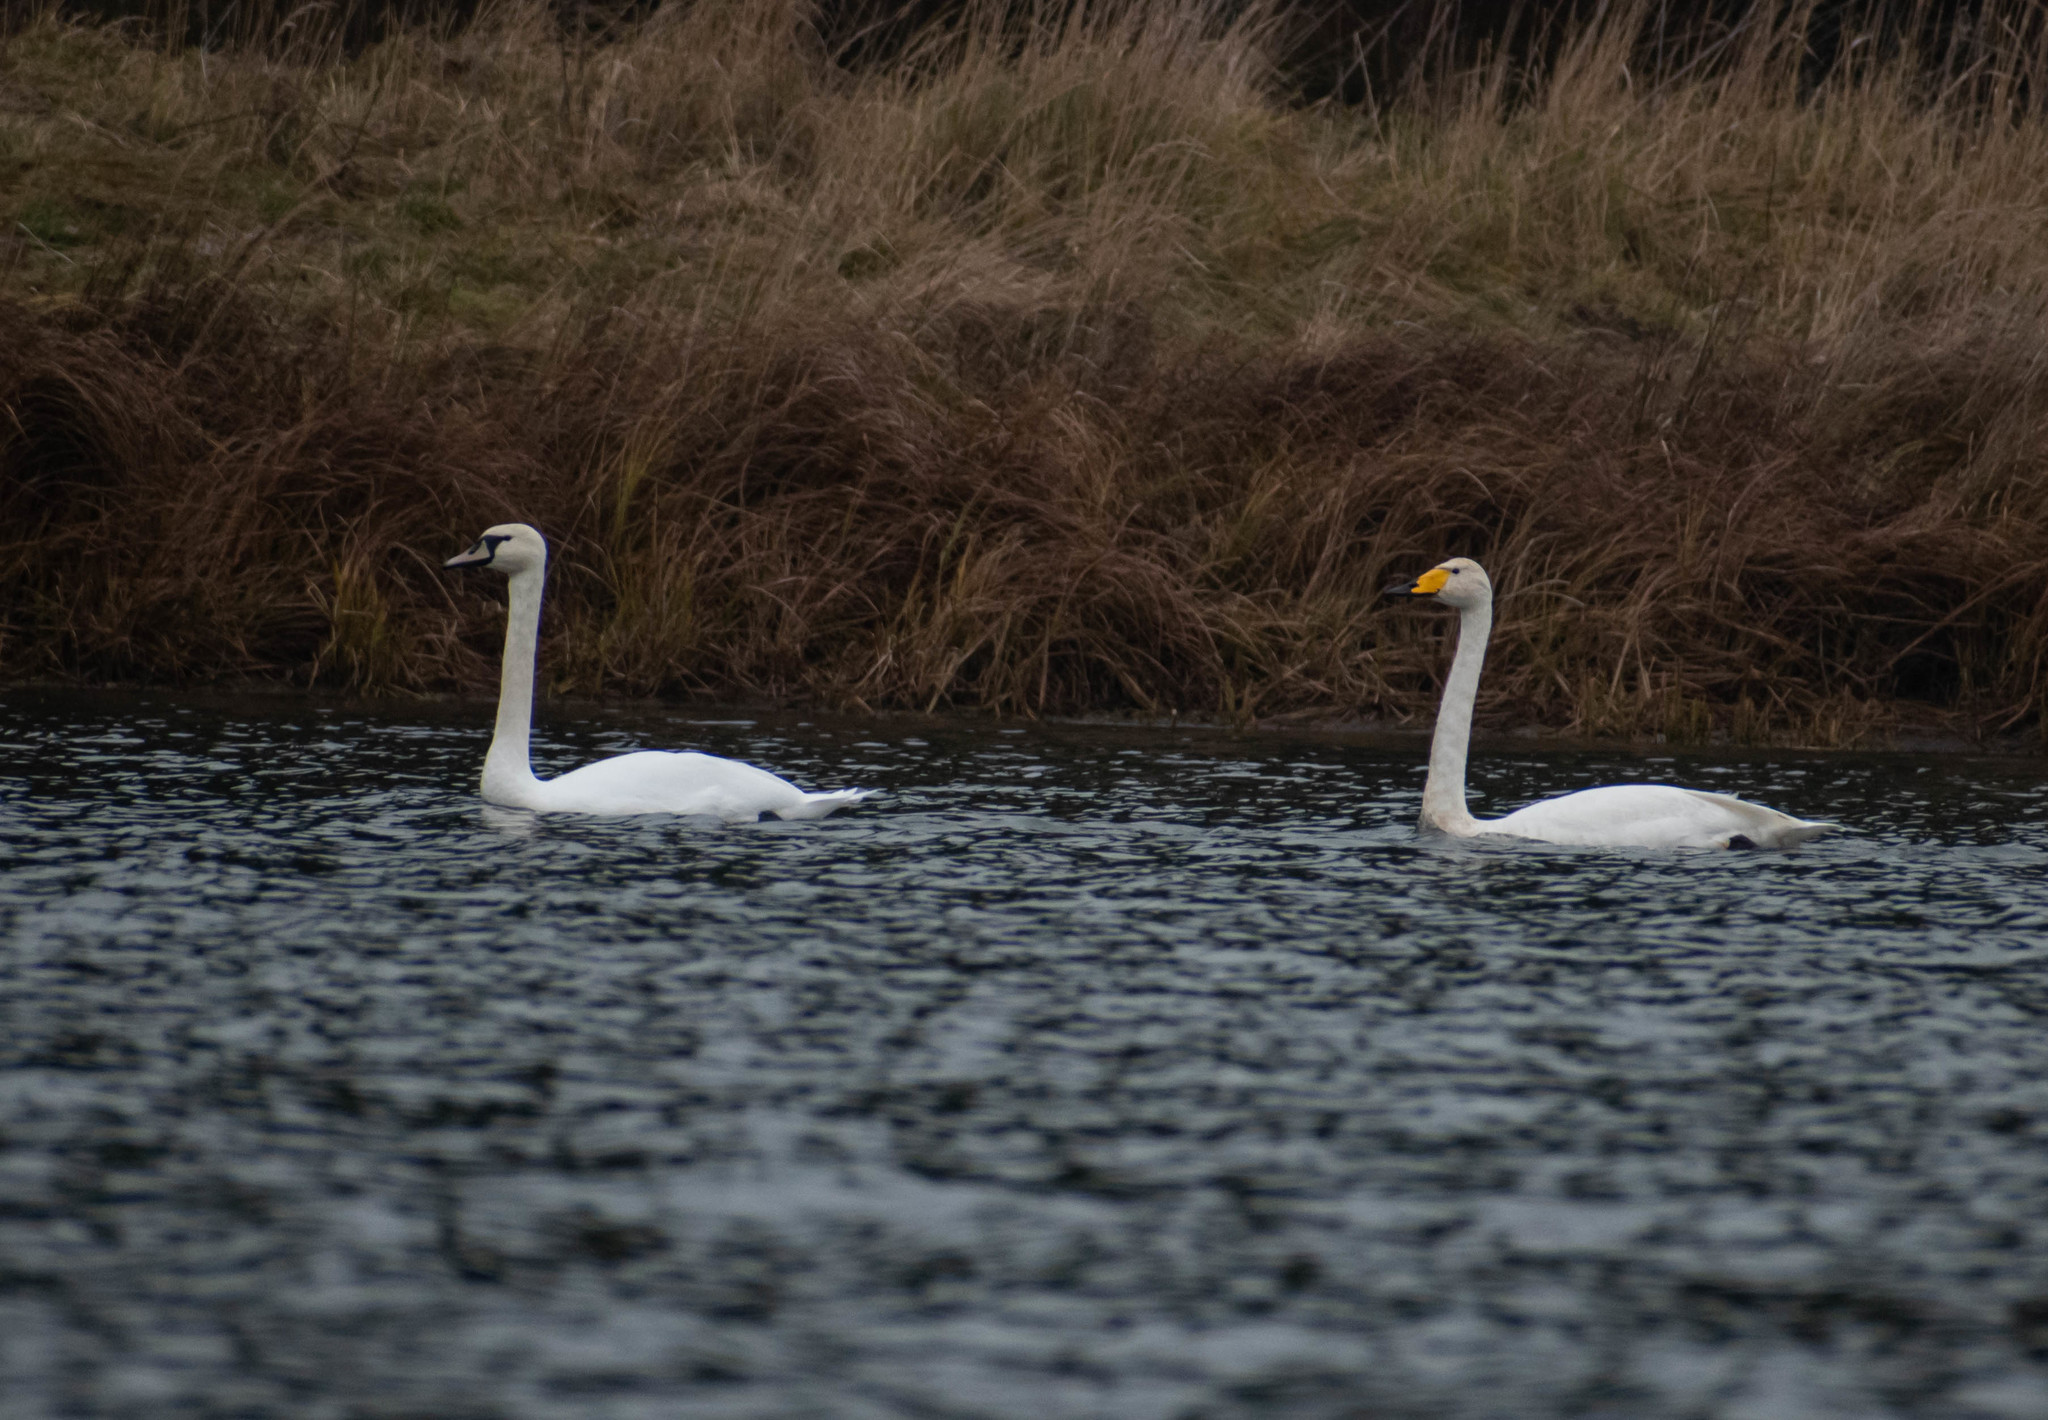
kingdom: Animalia
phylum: Chordata
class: Aves
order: Anseriformes
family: Anatidae
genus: Cygnus
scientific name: Cygnus olor
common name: Mute swan
